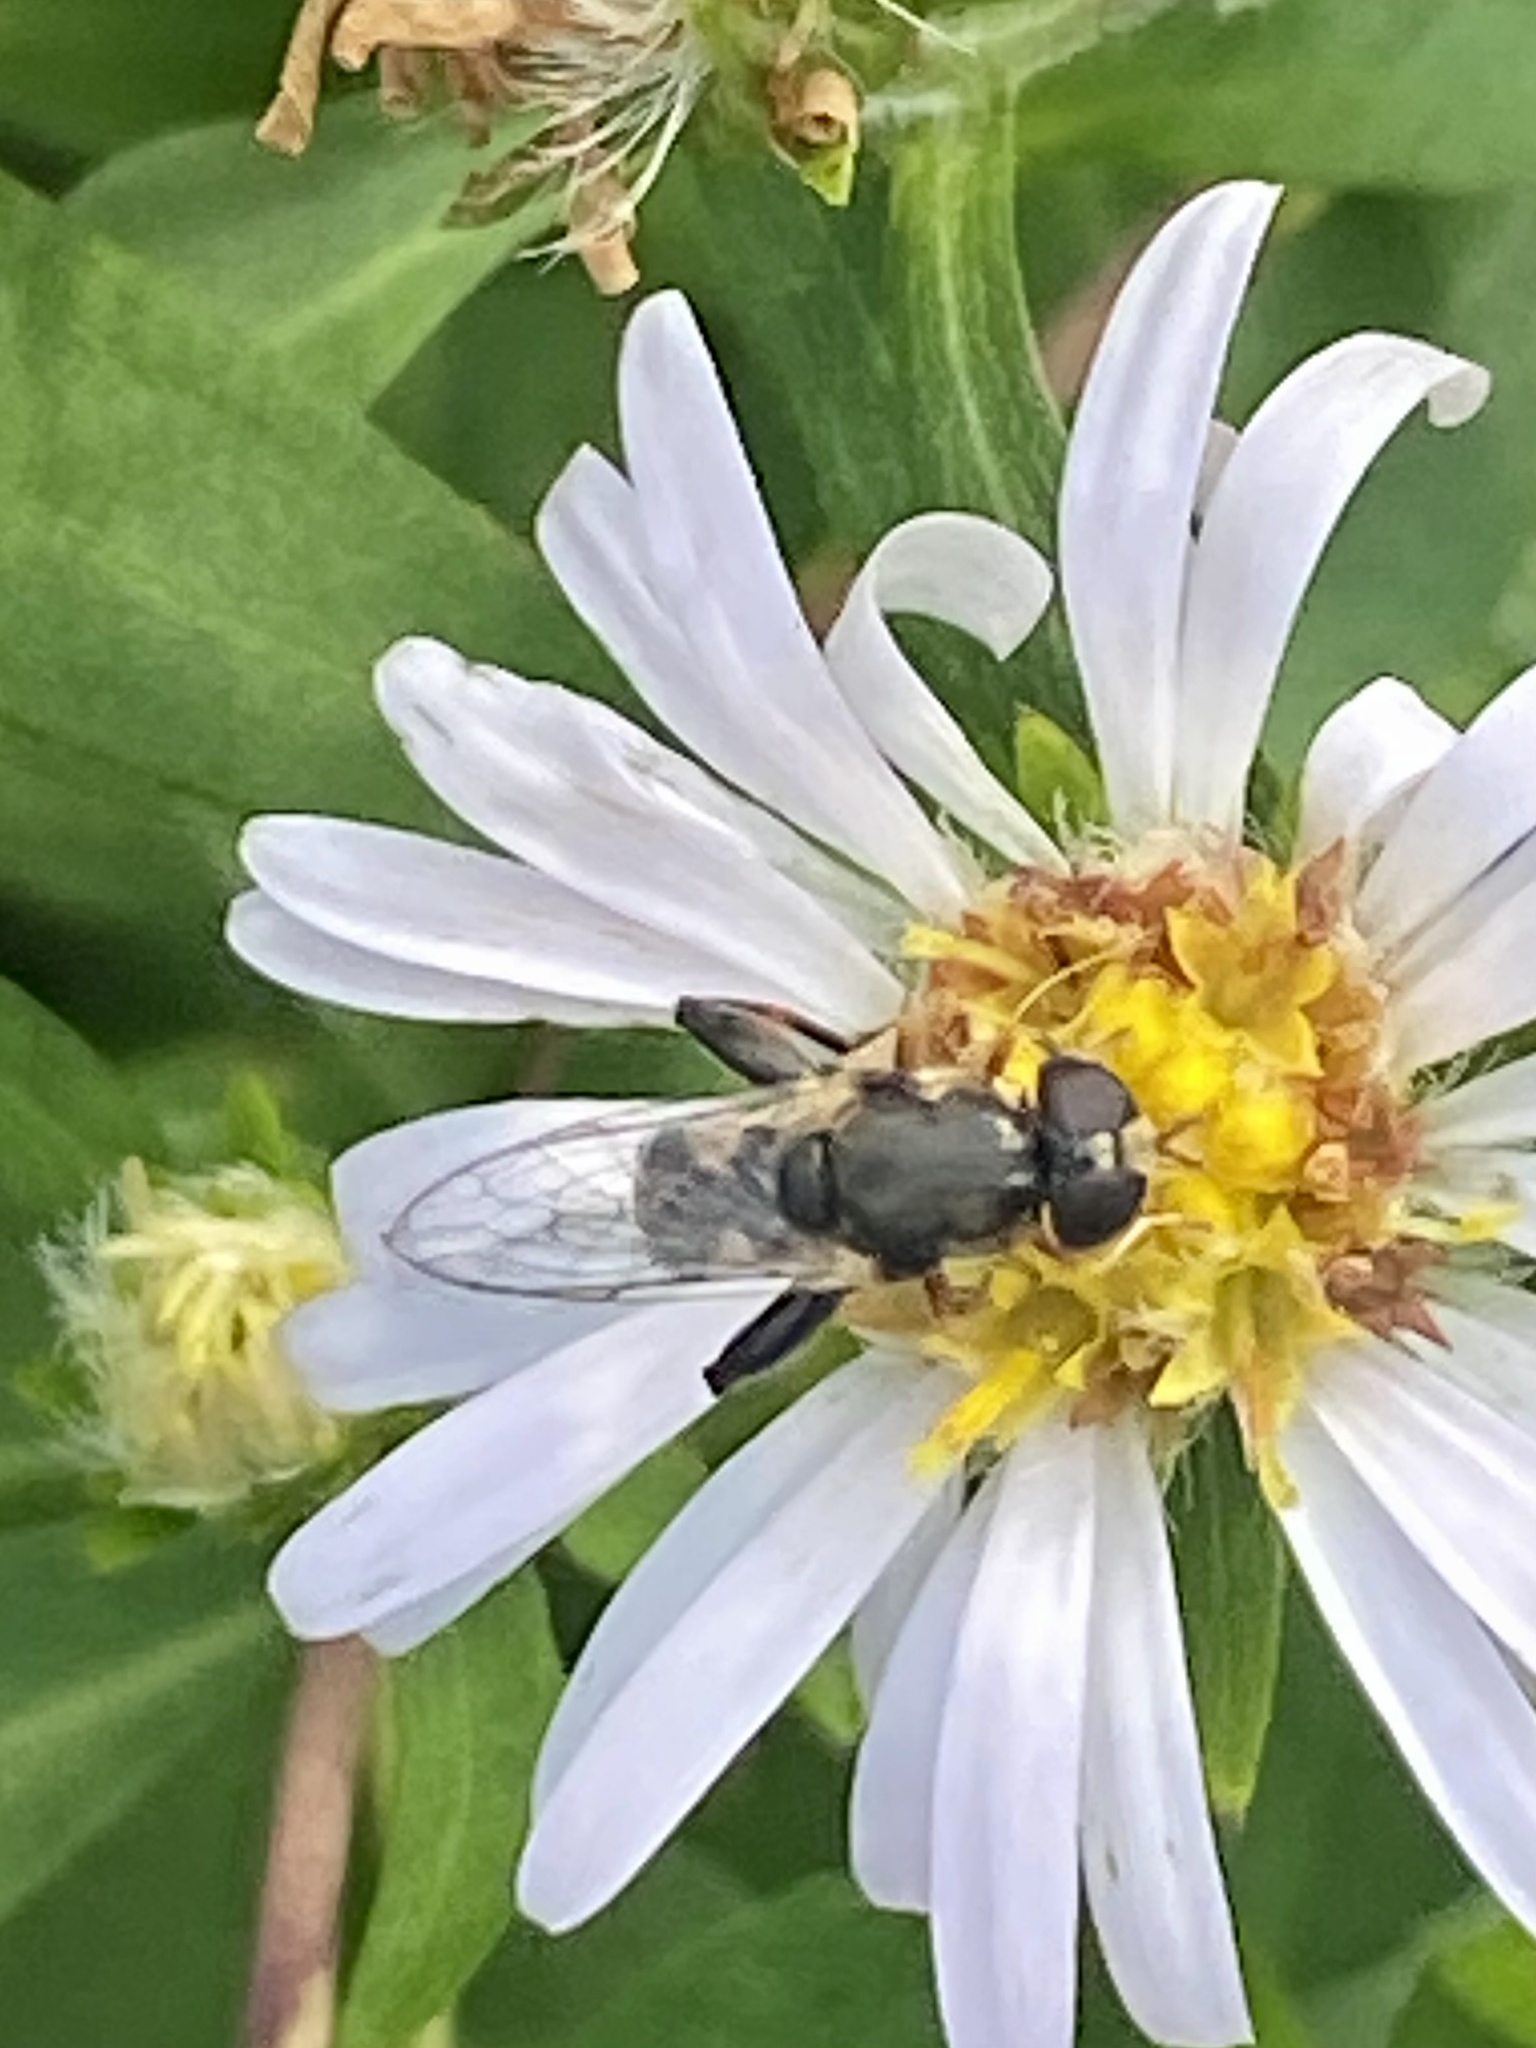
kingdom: Animalia
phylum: Arthropoda
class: Insecta
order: Diptera
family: Syrphidae
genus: Syritta
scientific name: Syritta pipiens
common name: Hover fly
